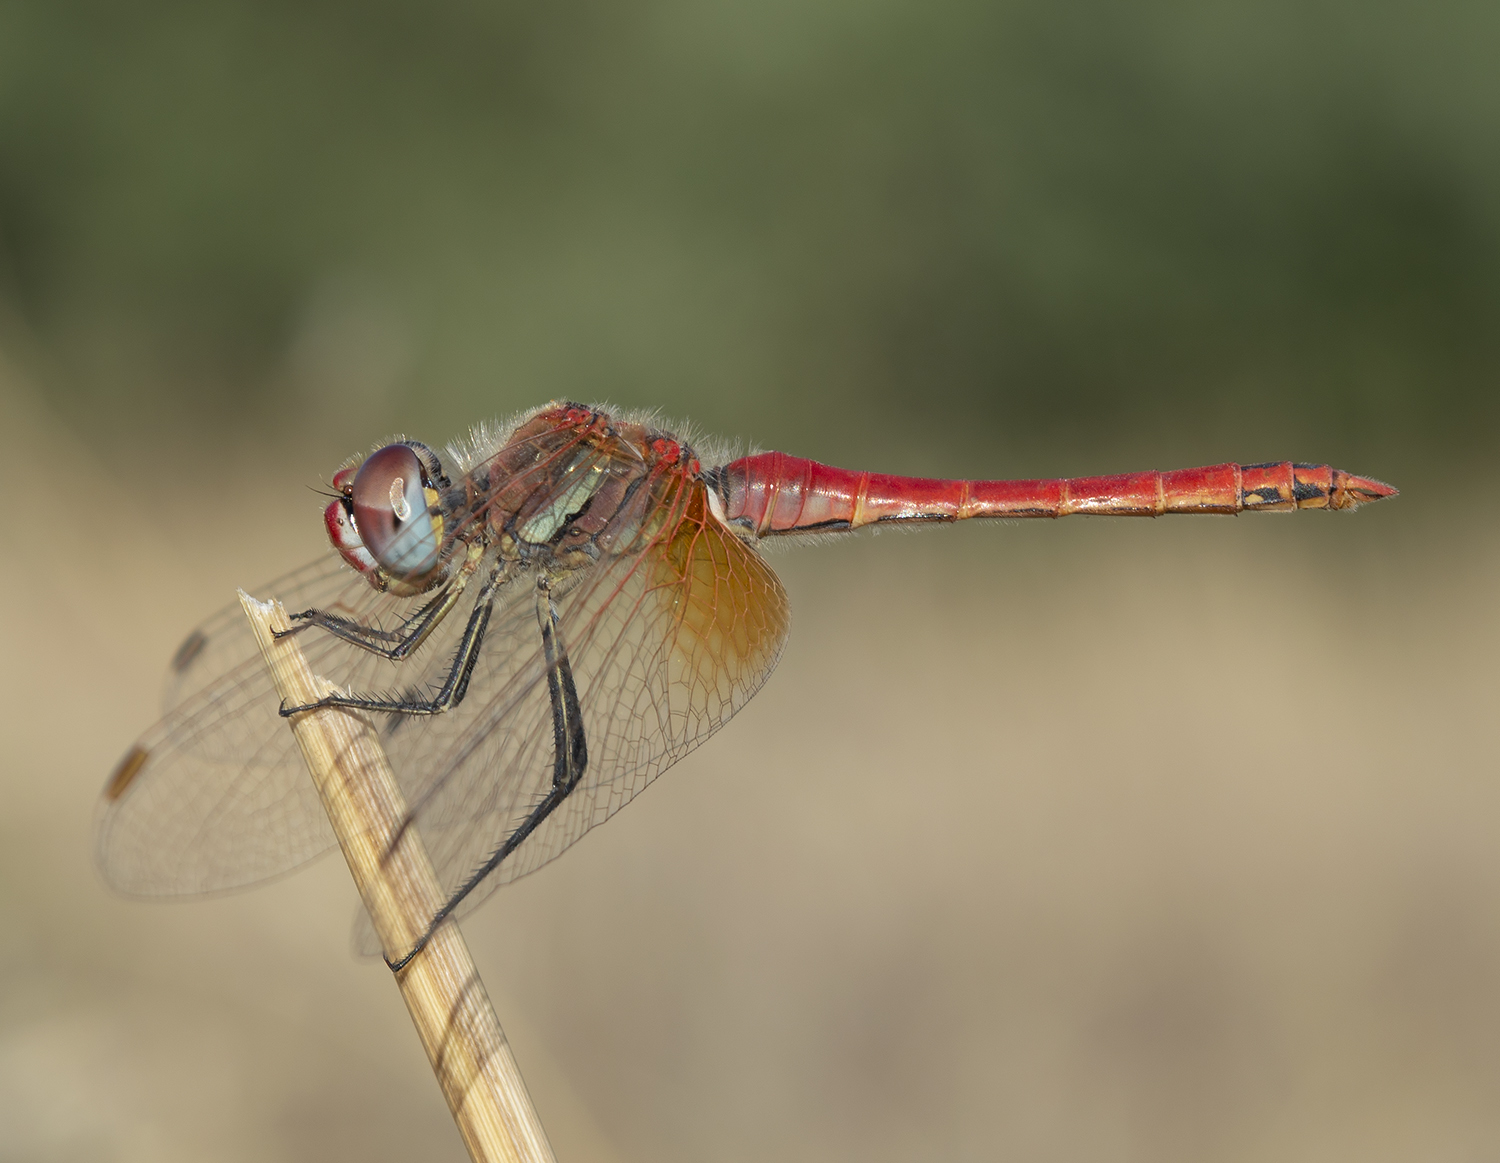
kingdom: Animalia
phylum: Arthropoda
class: Insecta
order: Odonata
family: Libellulidae
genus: Sympetrum
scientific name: Sympetrum fonscolombii
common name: Red-veined darter
